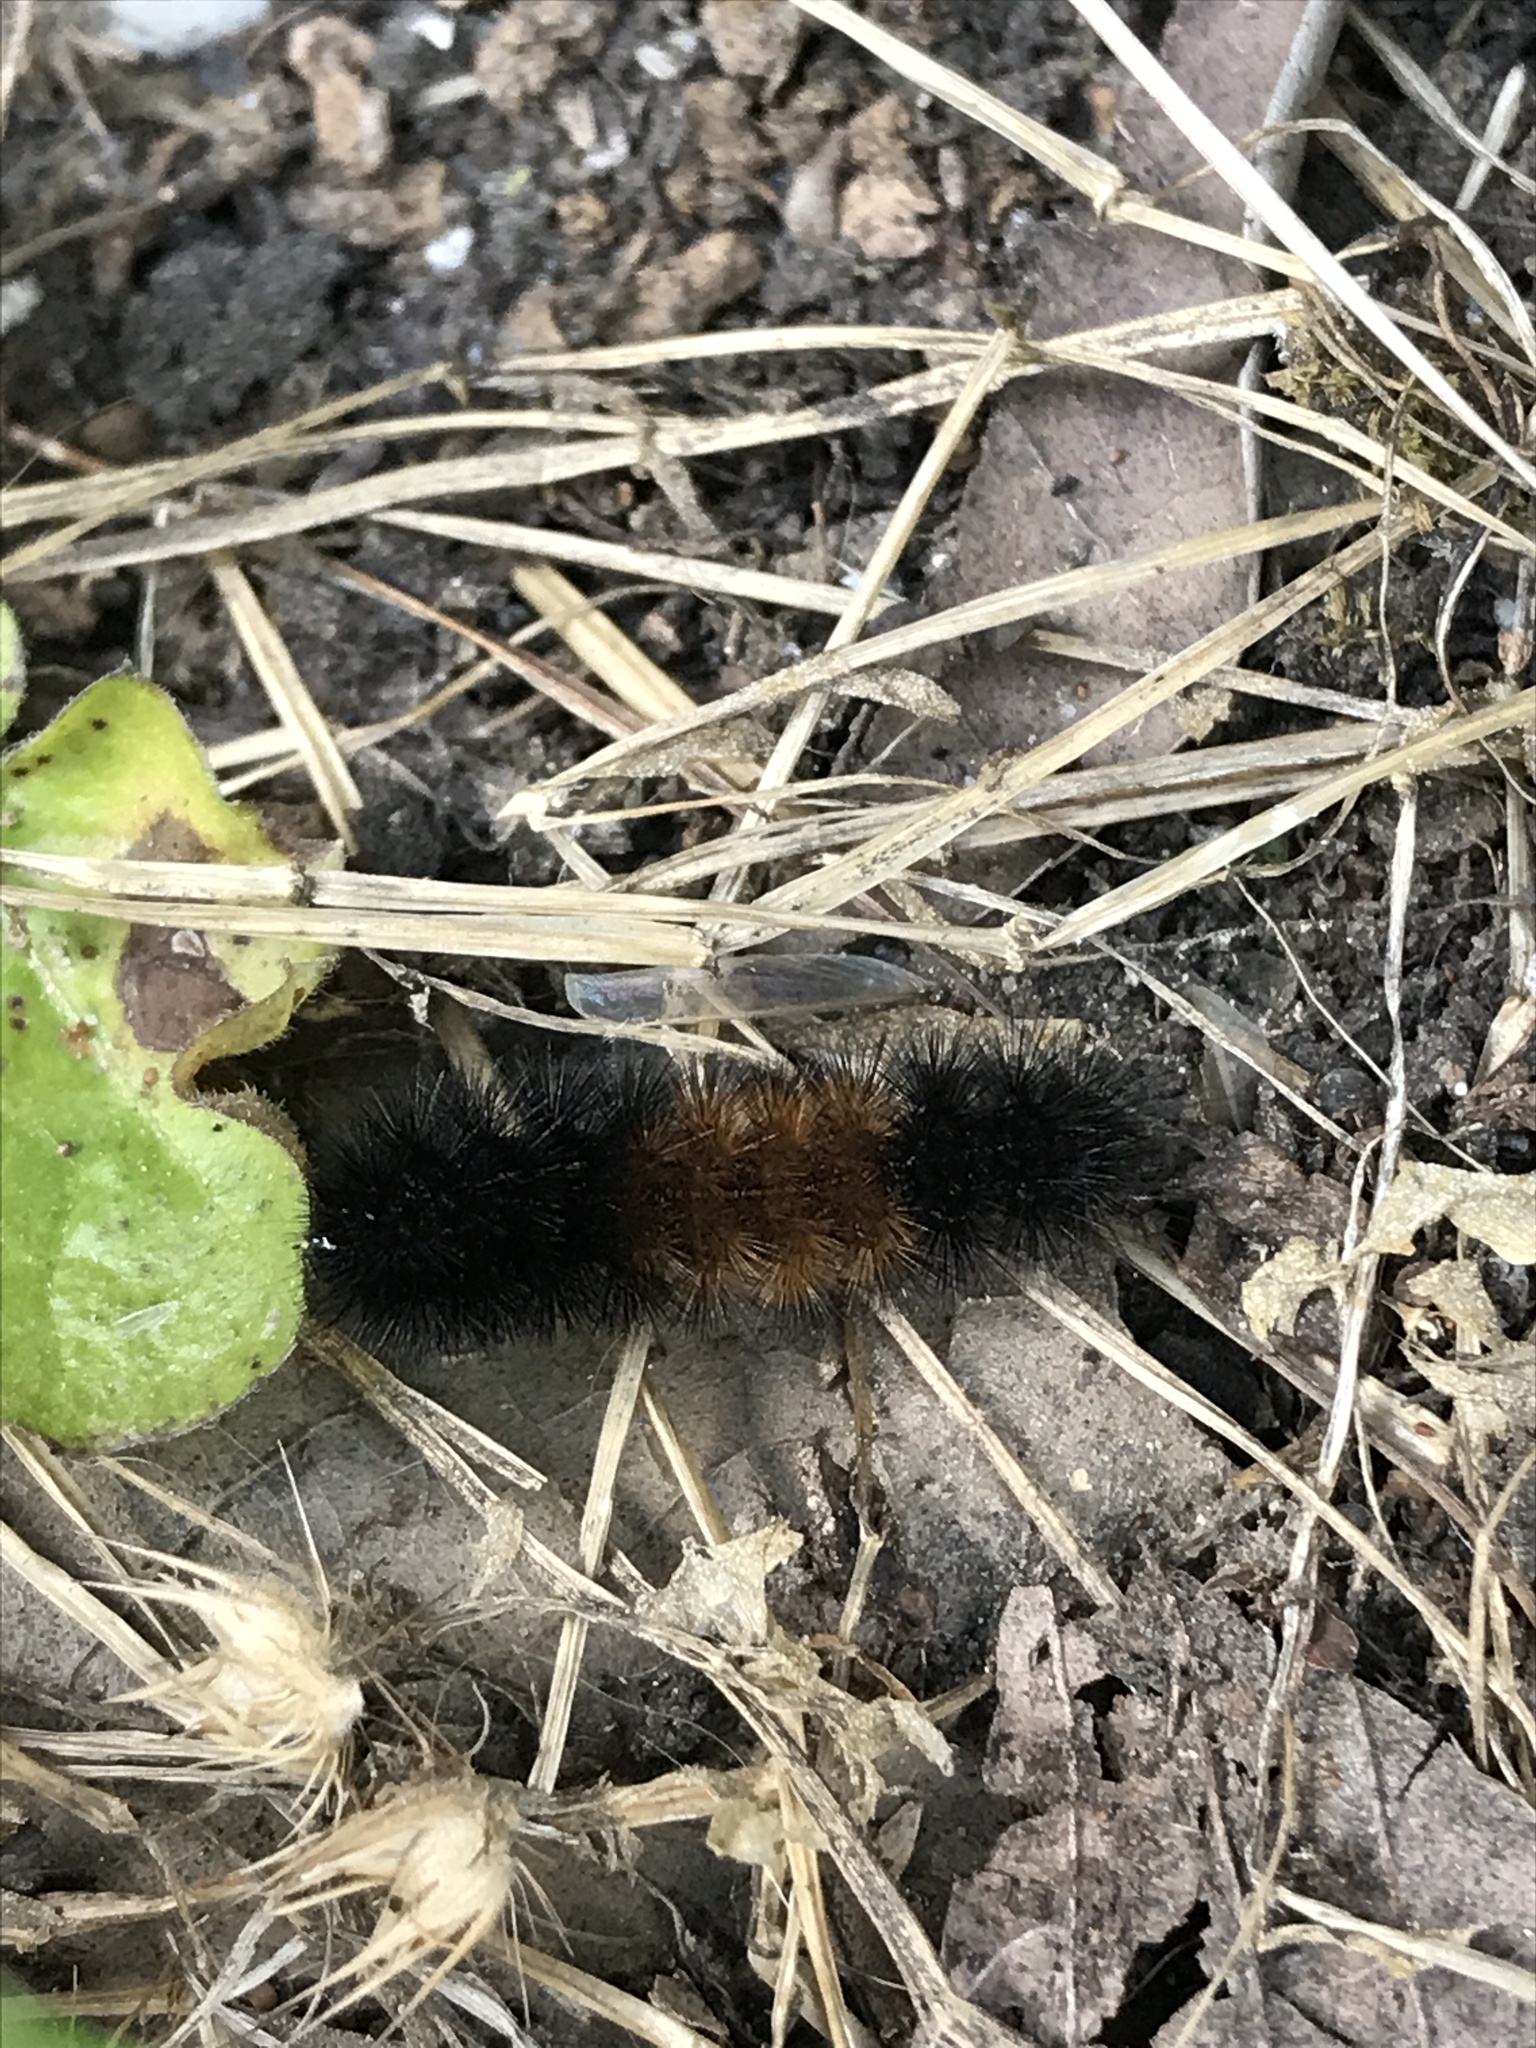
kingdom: Animalia
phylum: Arthropoda
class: Insecta
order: Lepidoptera
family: Erebidae
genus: Pyrrharctia
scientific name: Pyrrharctia isabella
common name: Isabella tiger moth
